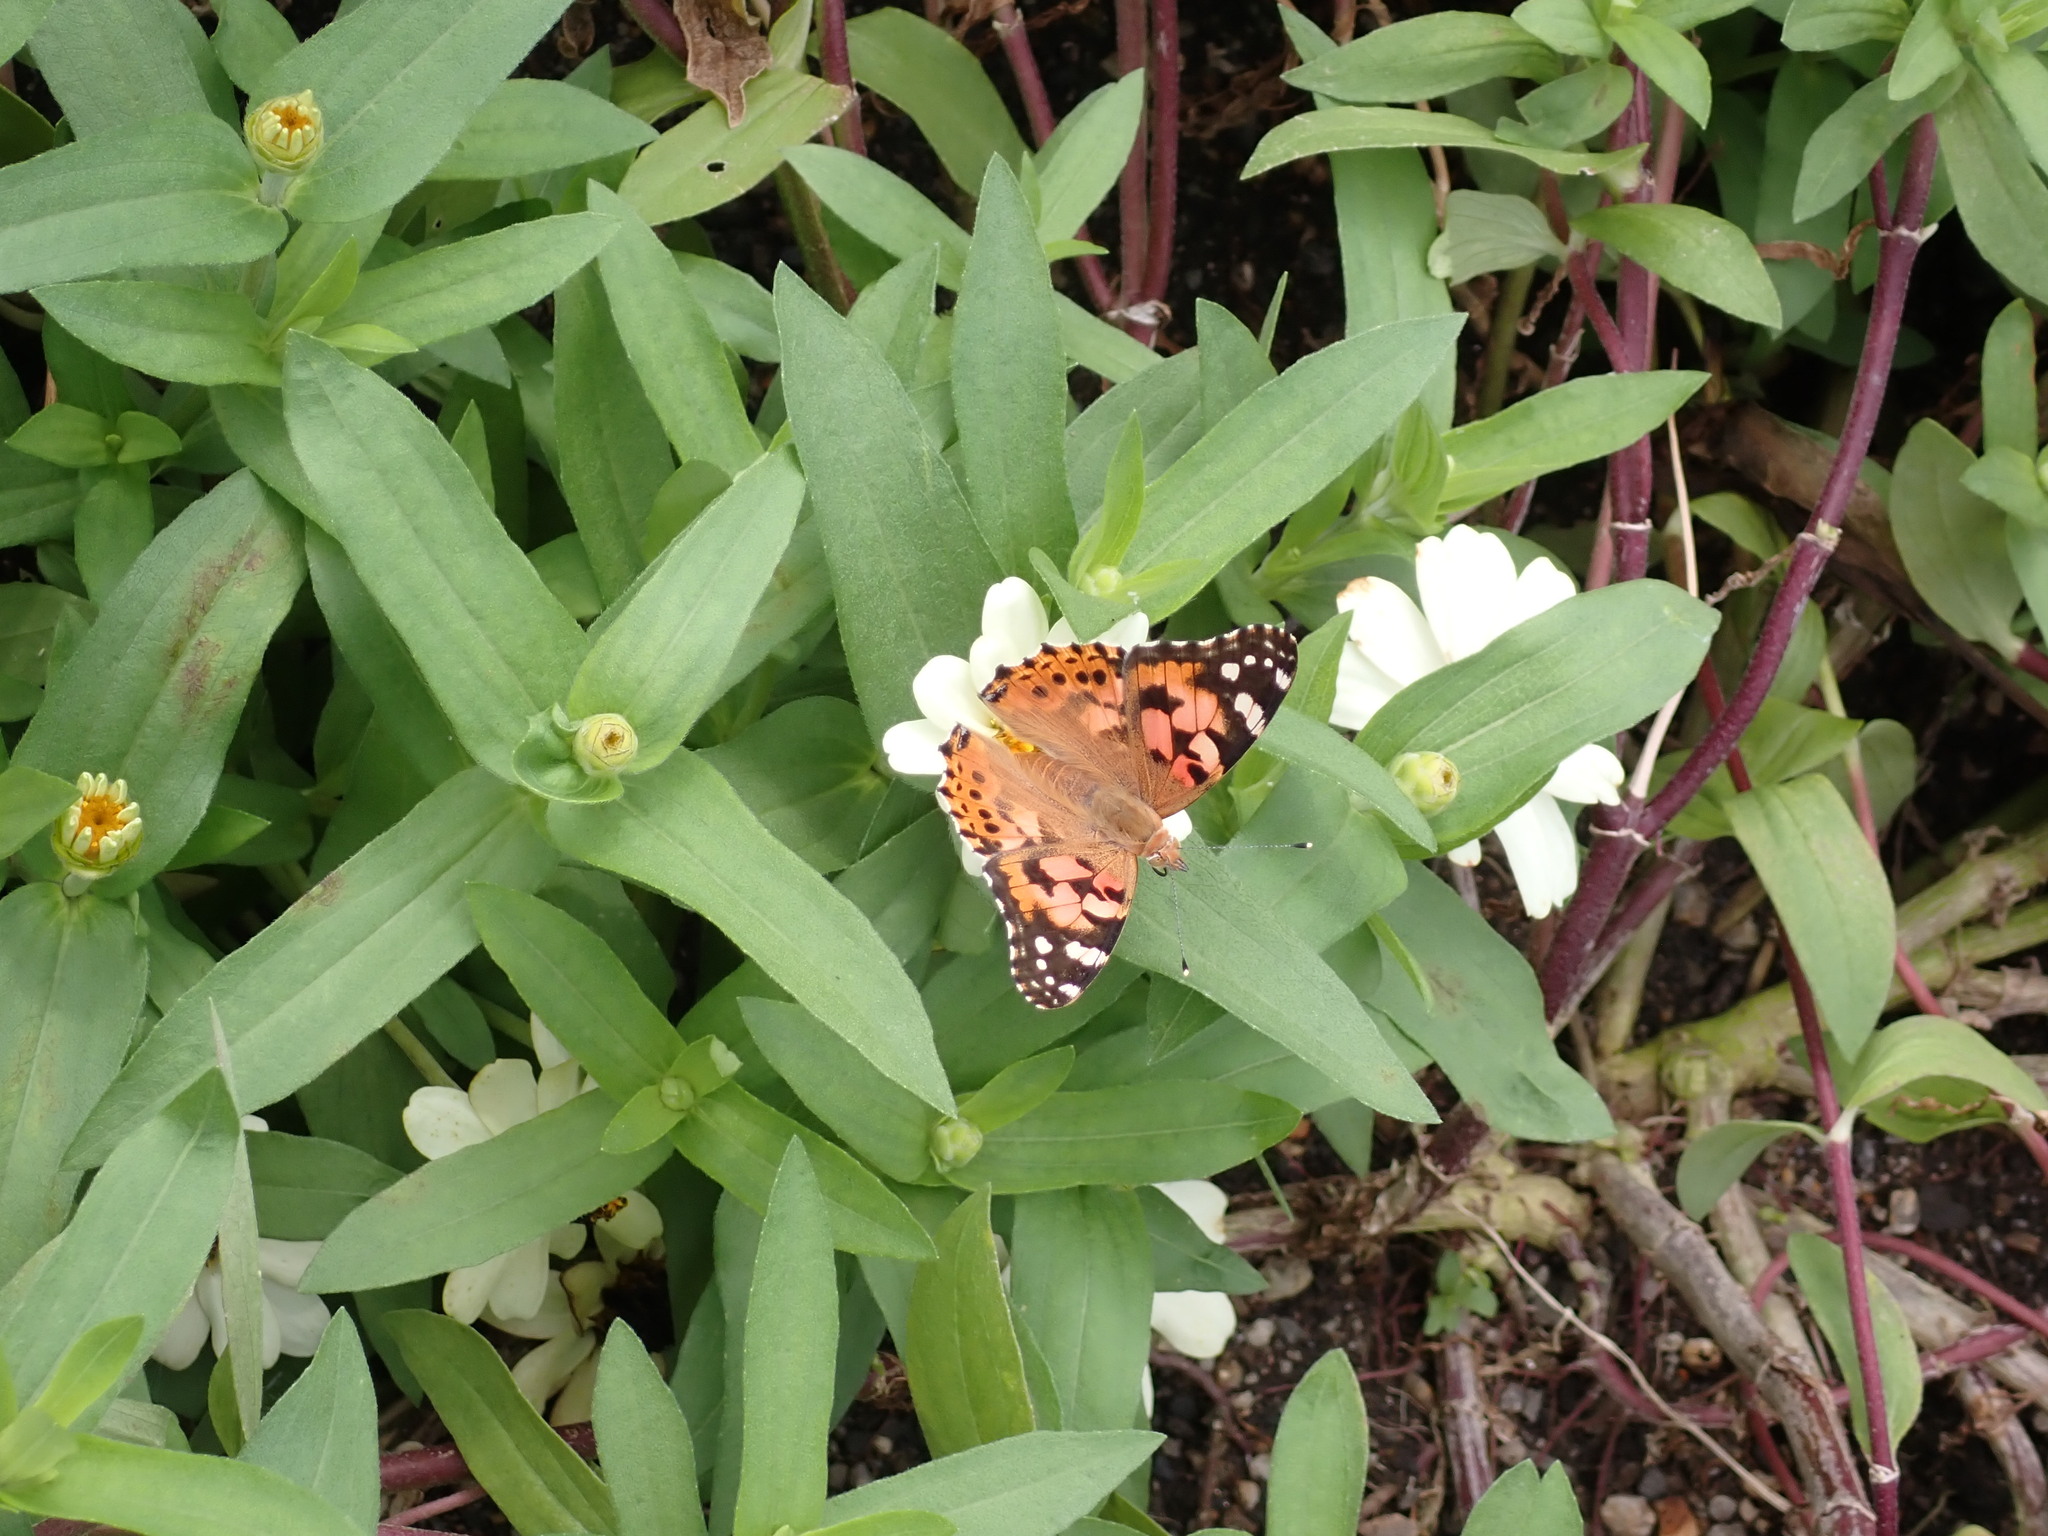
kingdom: Animalia
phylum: Arthropoda
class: Insecta
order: Lepidoptera
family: Nymphalidae
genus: Vanessa
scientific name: Vanessa cardui
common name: Painted lady
